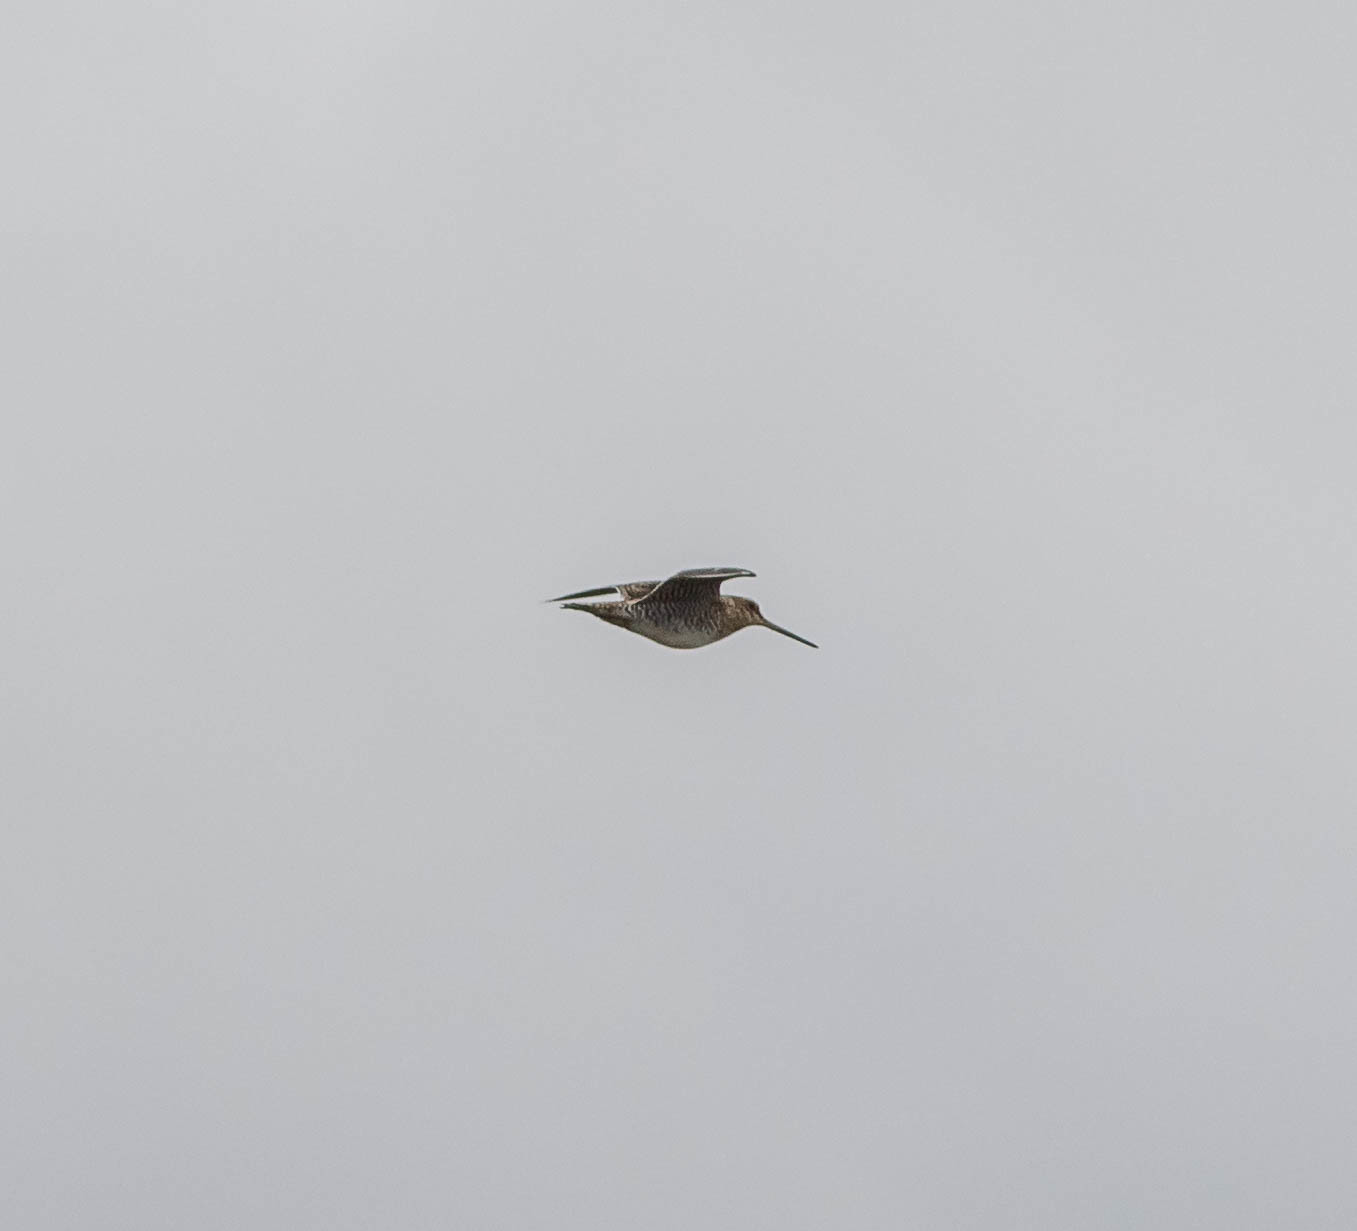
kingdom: Animalia
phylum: Chordata
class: Aves
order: Charadriiformes
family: Scolopacidae
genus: Gallinago
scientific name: Gallinago delicata
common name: Wilson's snipe
